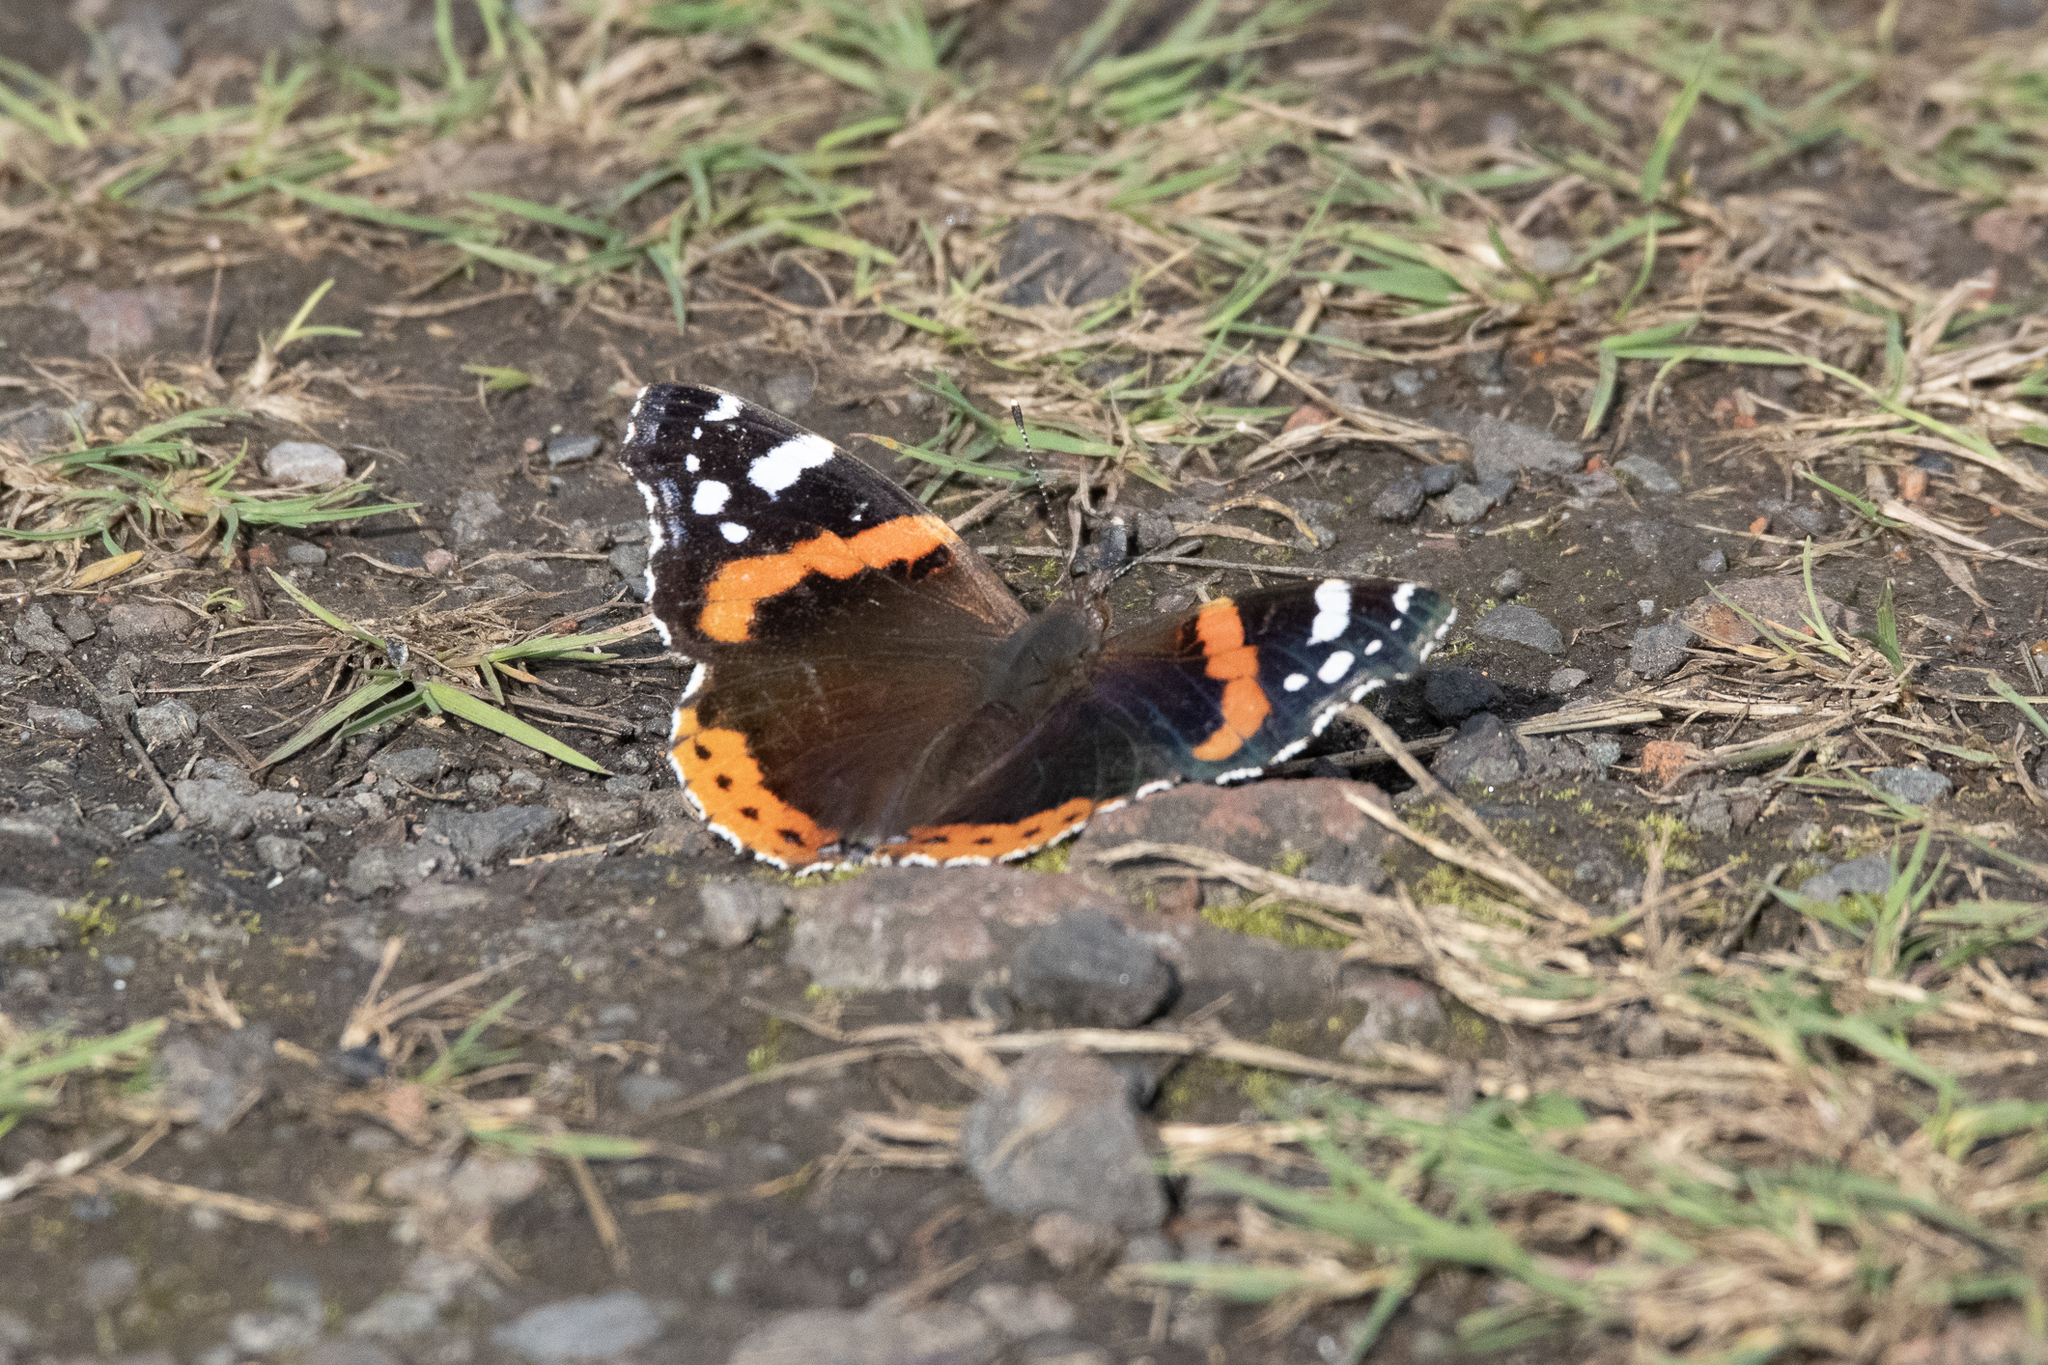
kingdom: Animalia
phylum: Arthropoda
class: Insecta
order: Lepidoptera
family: Nymphalidae
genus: Vanessa
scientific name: Vanessa atalanta
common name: Red admiral
